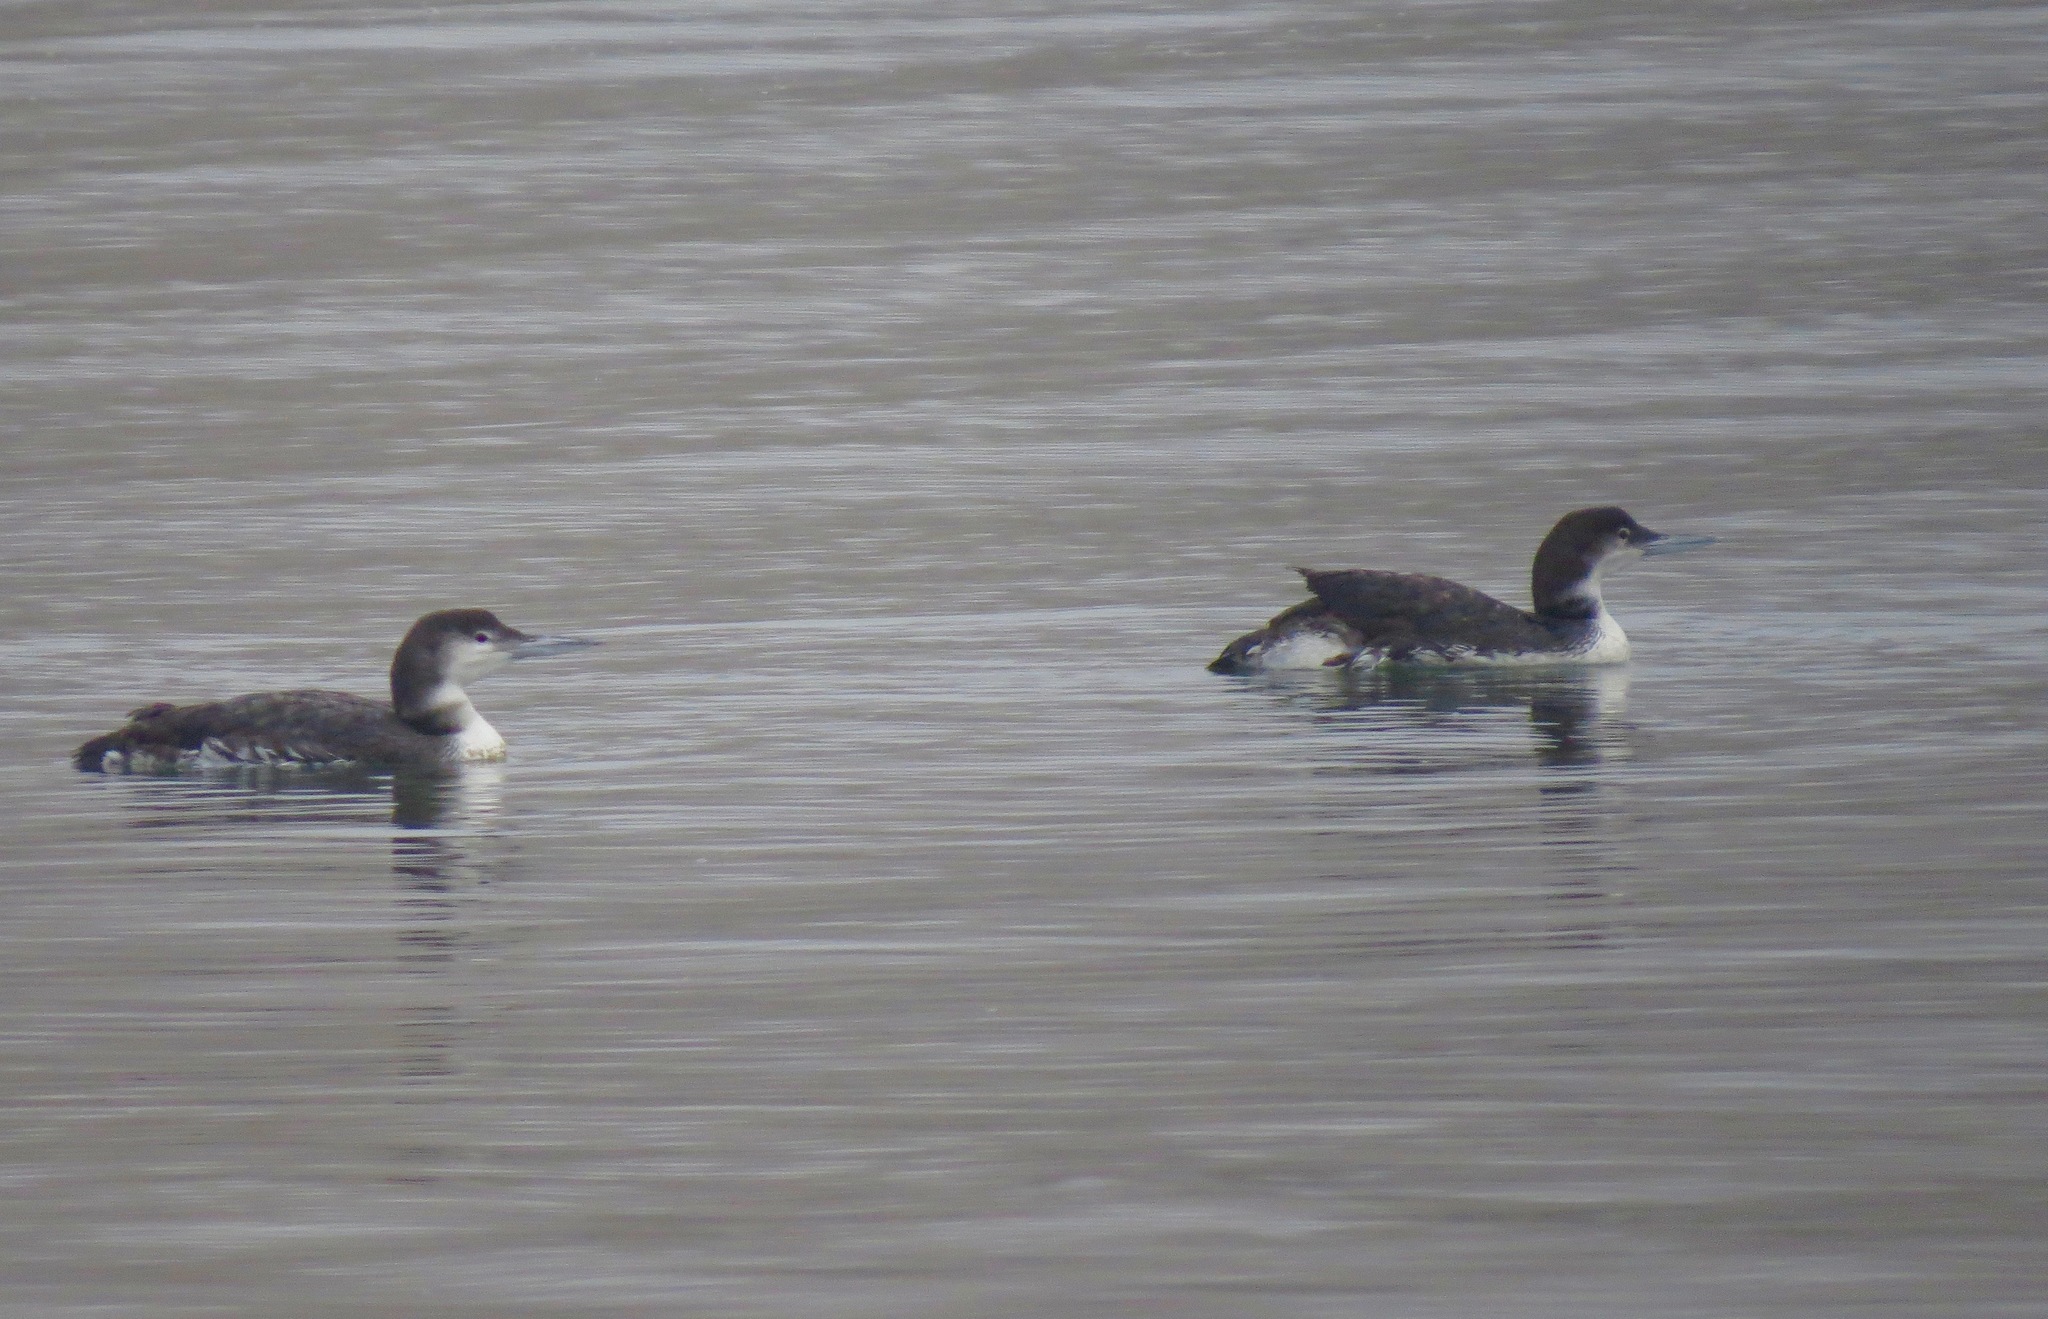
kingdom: Animalia
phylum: Chordata
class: Aves
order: Gaviiformes
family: Gaviidae
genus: Gavia
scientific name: Gavia immer
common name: Common loon
